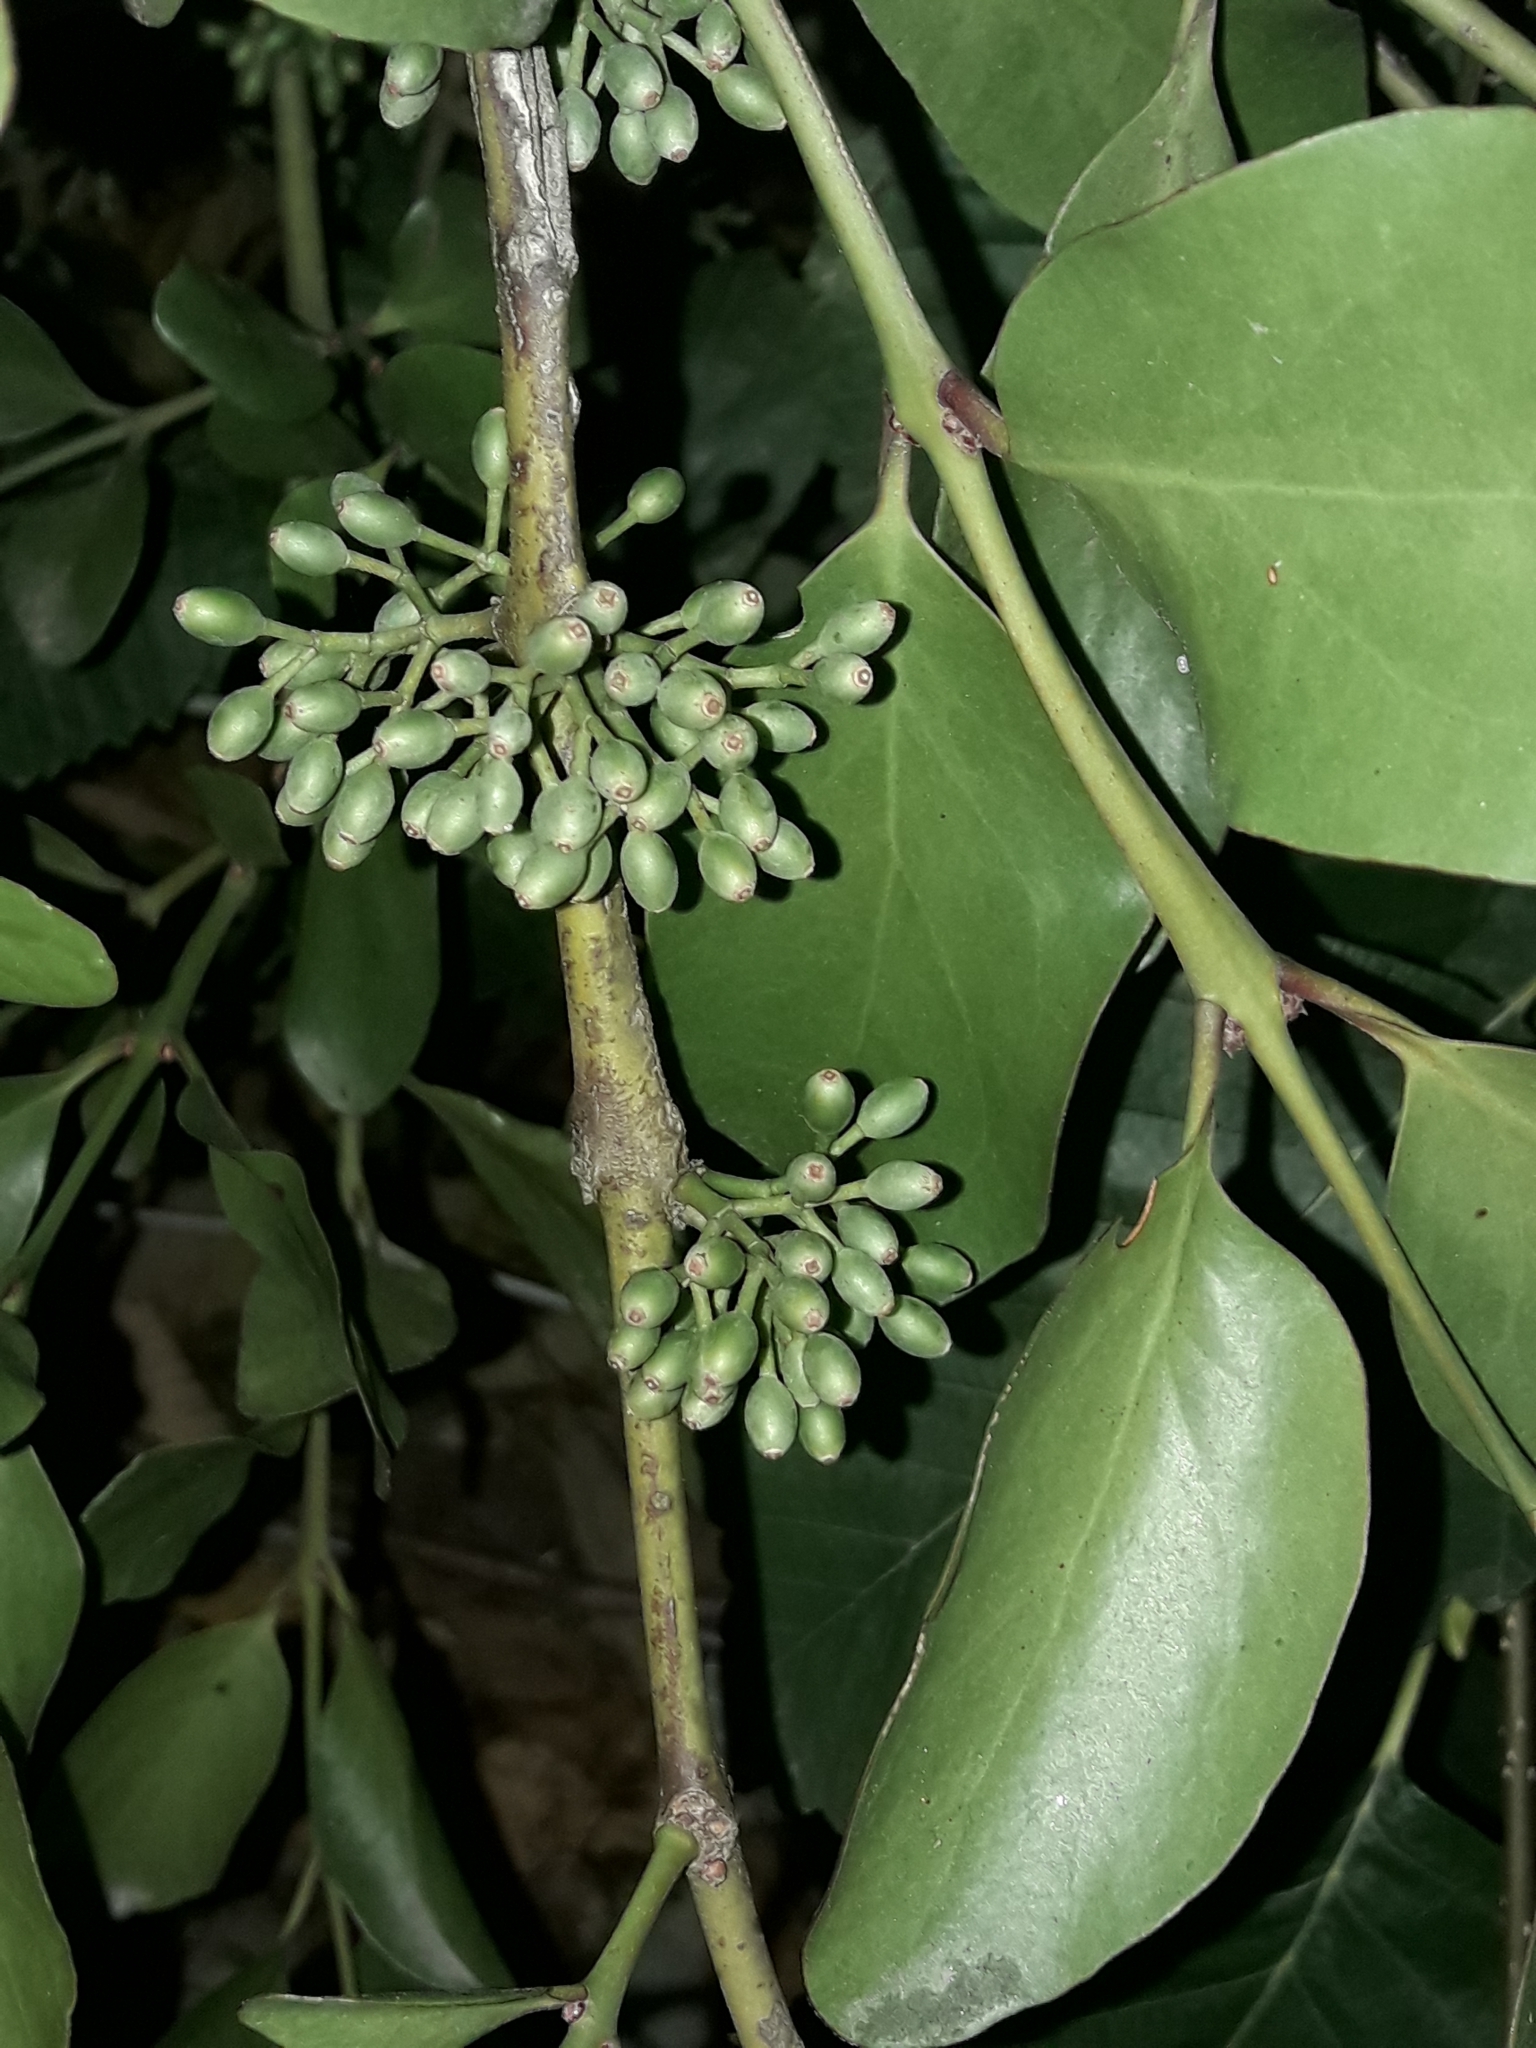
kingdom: Plantae
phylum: Tracheophyta
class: Magnoliopsida
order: Santalales
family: Loranthaceae
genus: Ileostylus
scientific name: Ileostylus micranthus
